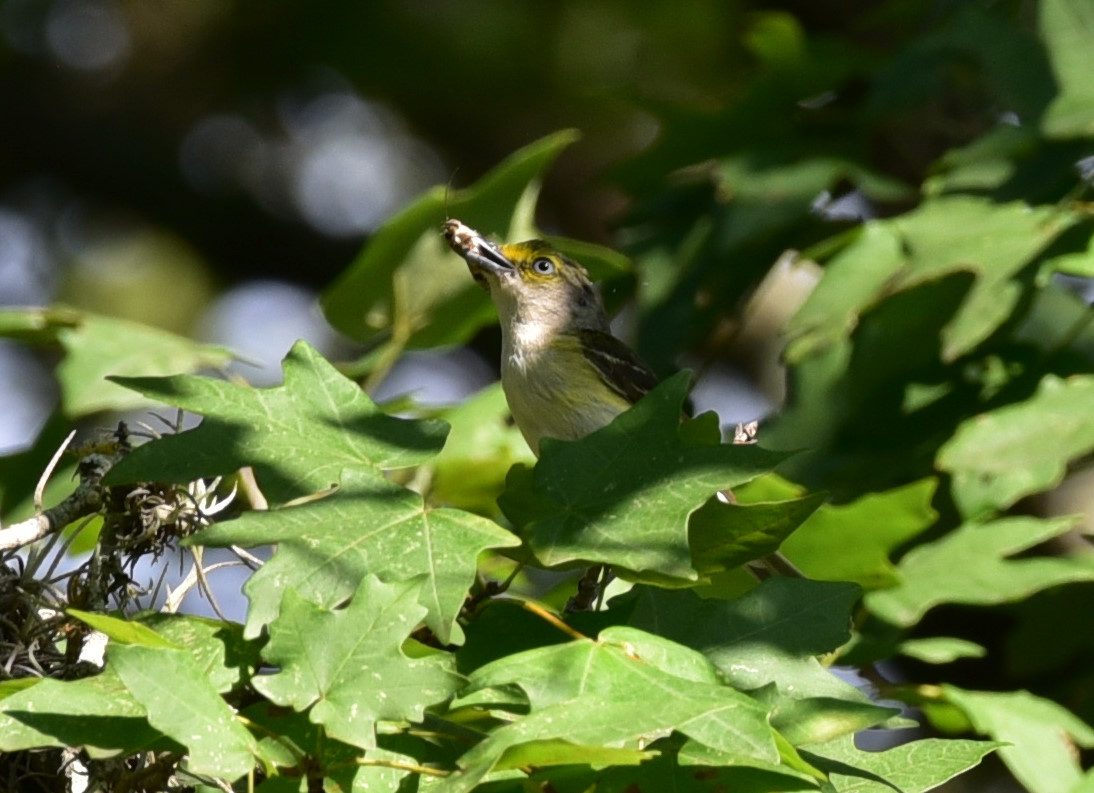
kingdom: Animalia
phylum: Chordata
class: Aves
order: Passeriformes
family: Vireonidae
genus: Vireo
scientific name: Vireo griseus
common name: White-eyed vireo
